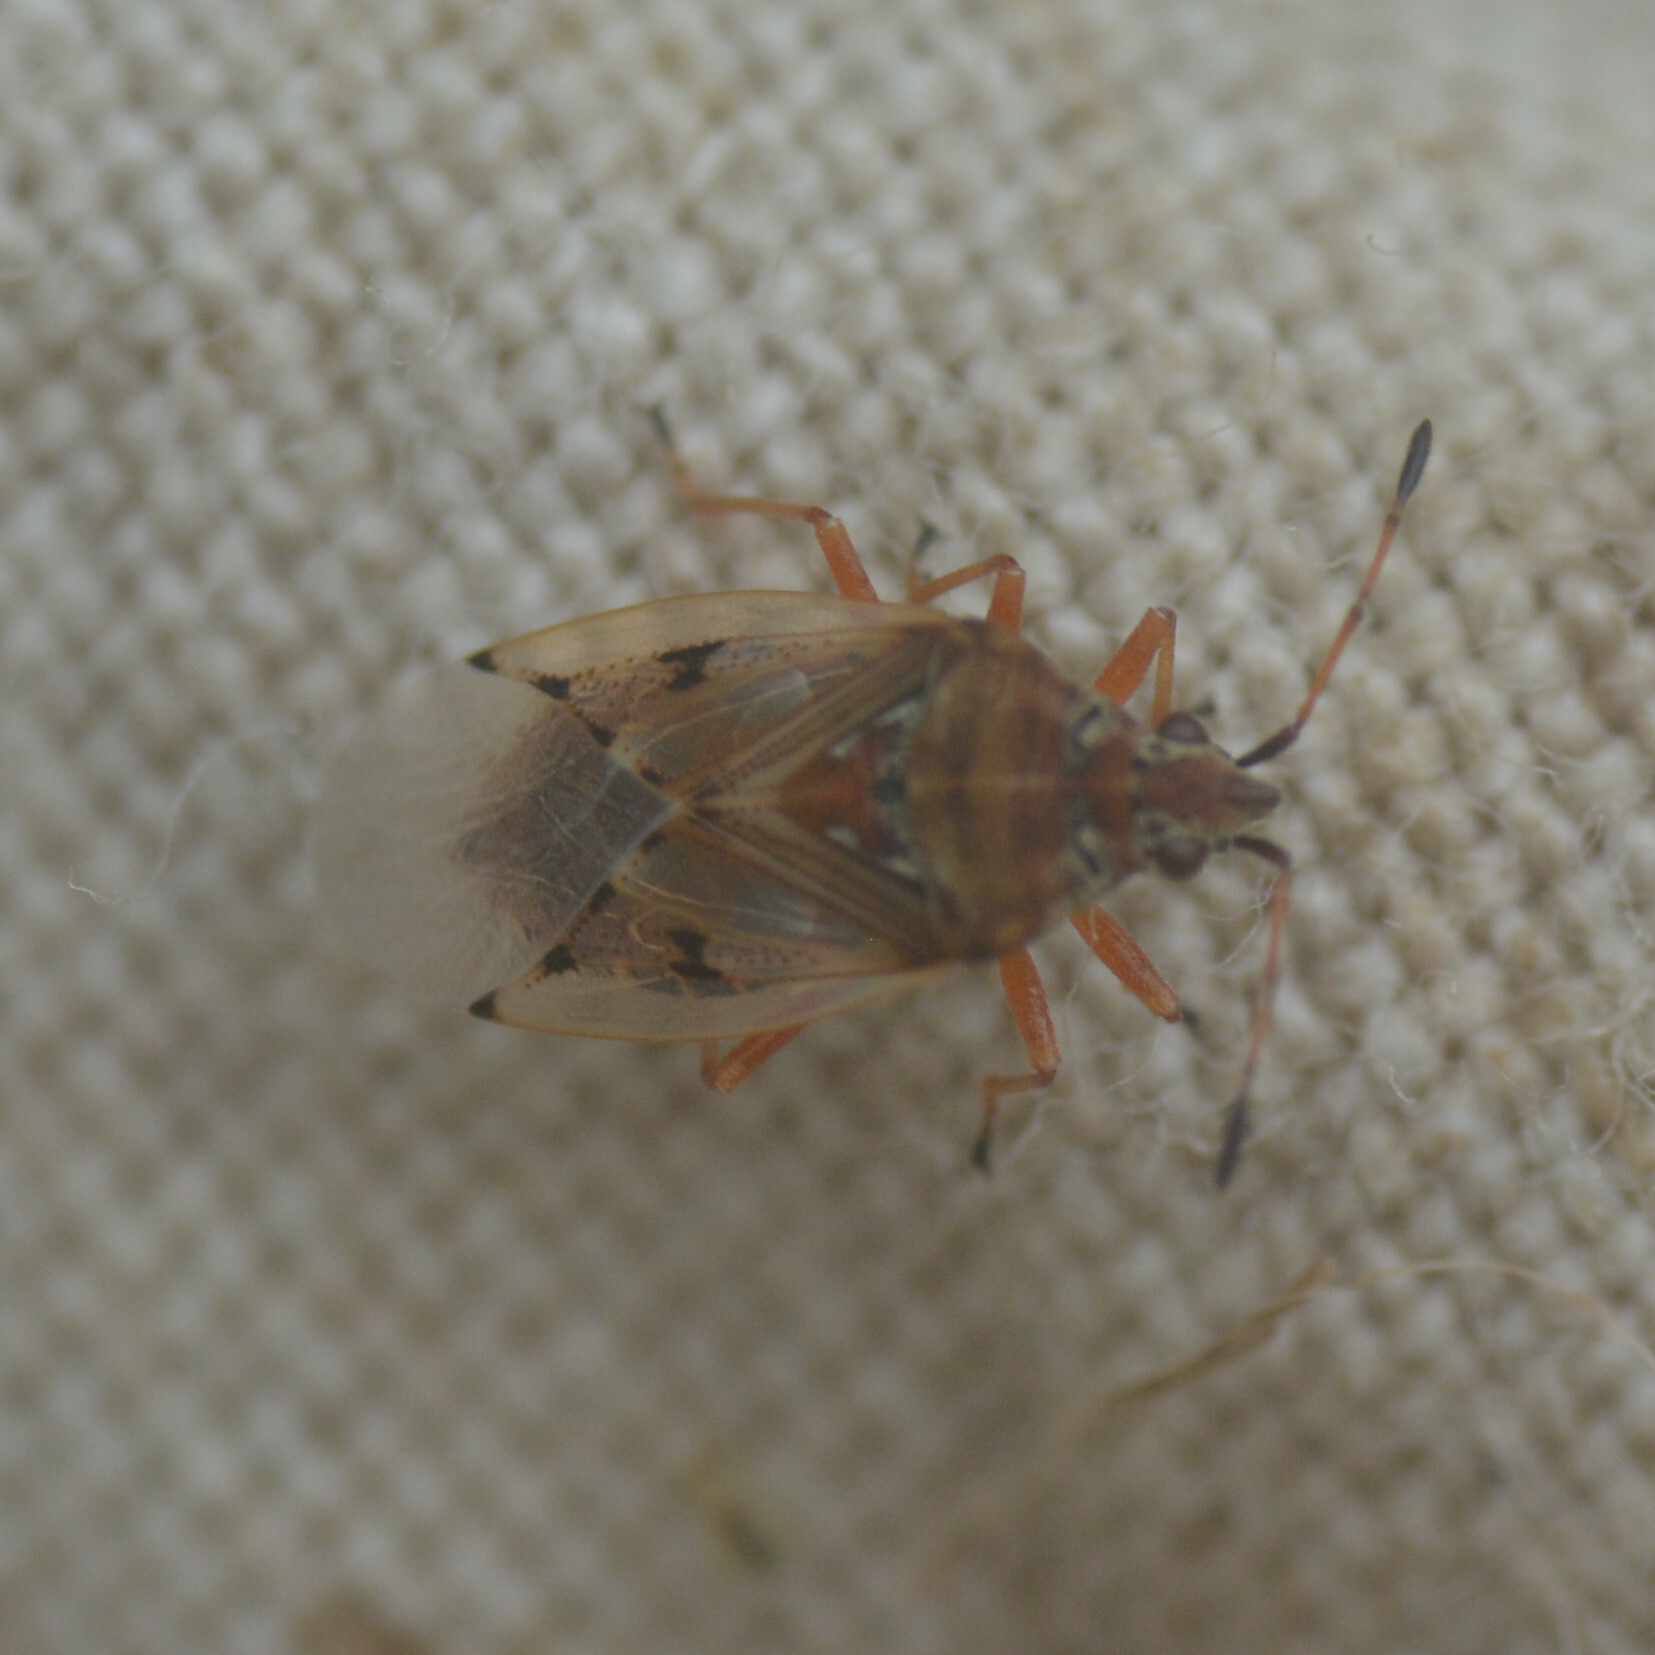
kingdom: Animalia
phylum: Arthropoda
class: Insecta
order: Hemiptera
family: Lygaeidae
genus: Kleidocerys
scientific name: Kleidocerys resedae
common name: Birch catkin bug
